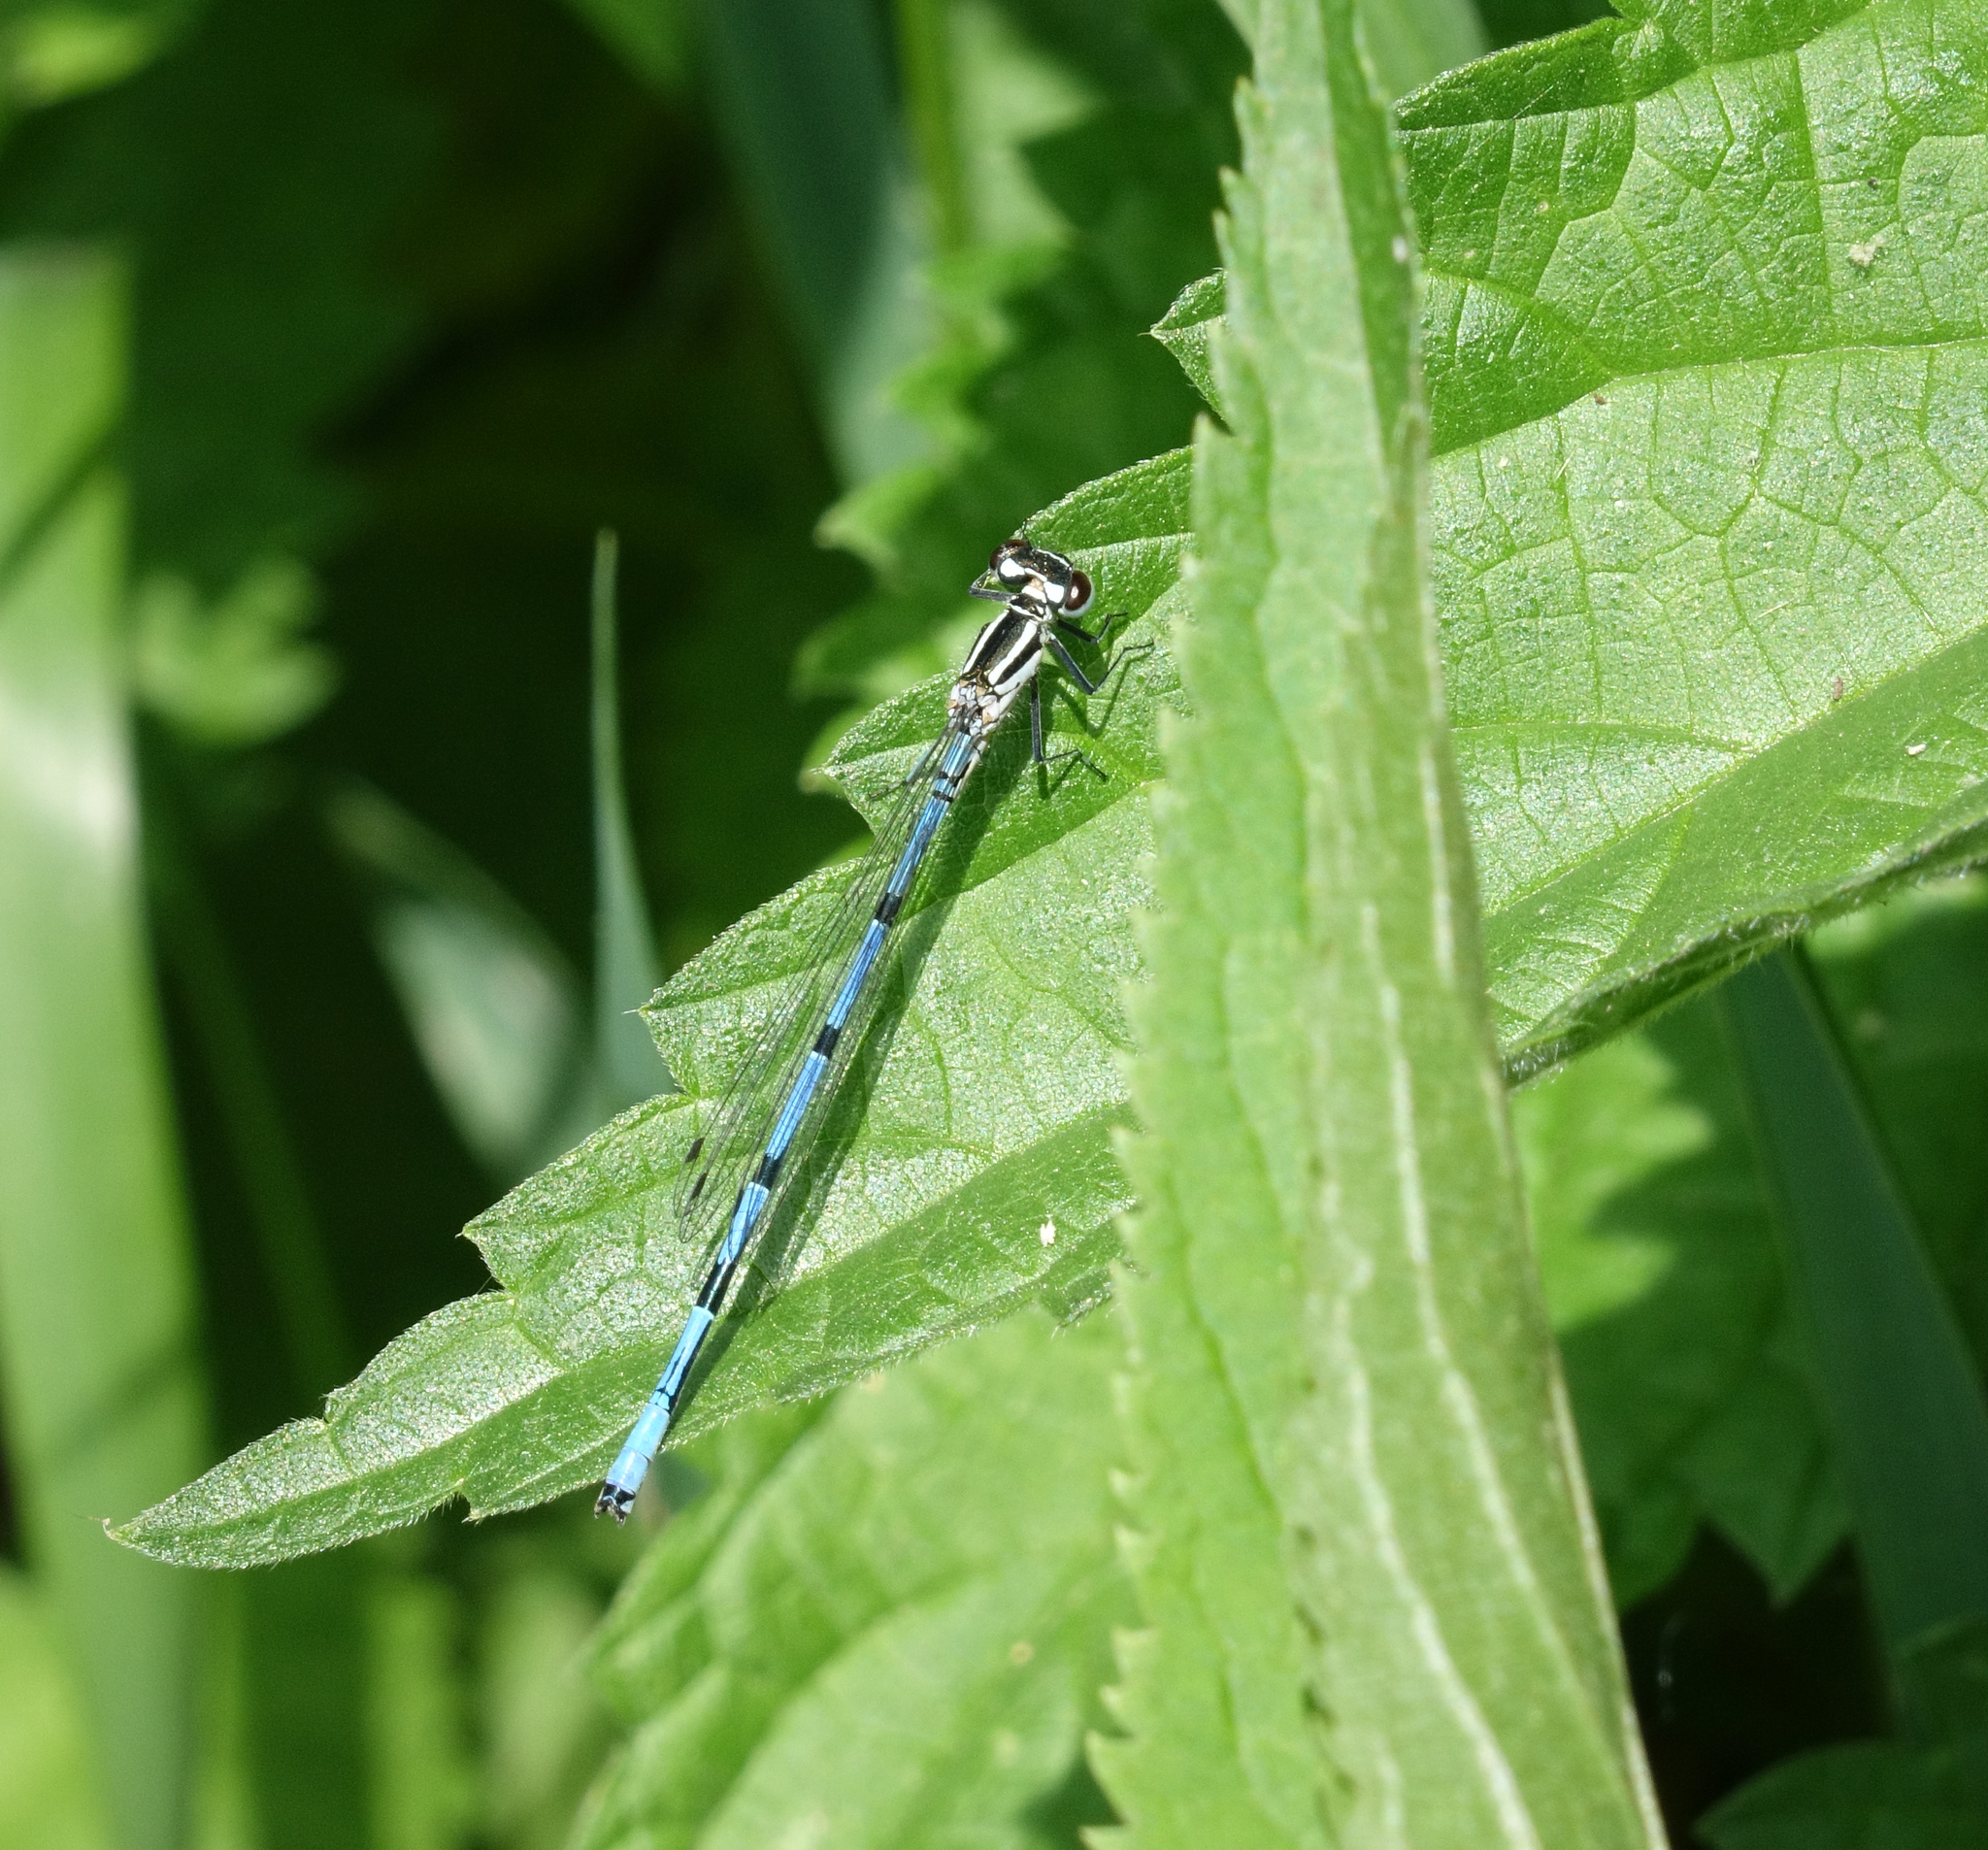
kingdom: Animalia
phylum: Arthropoda
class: Insecta
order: Odonata
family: Coenagrionidae
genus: Coenagrion
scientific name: Coenagrion australocaspicum
